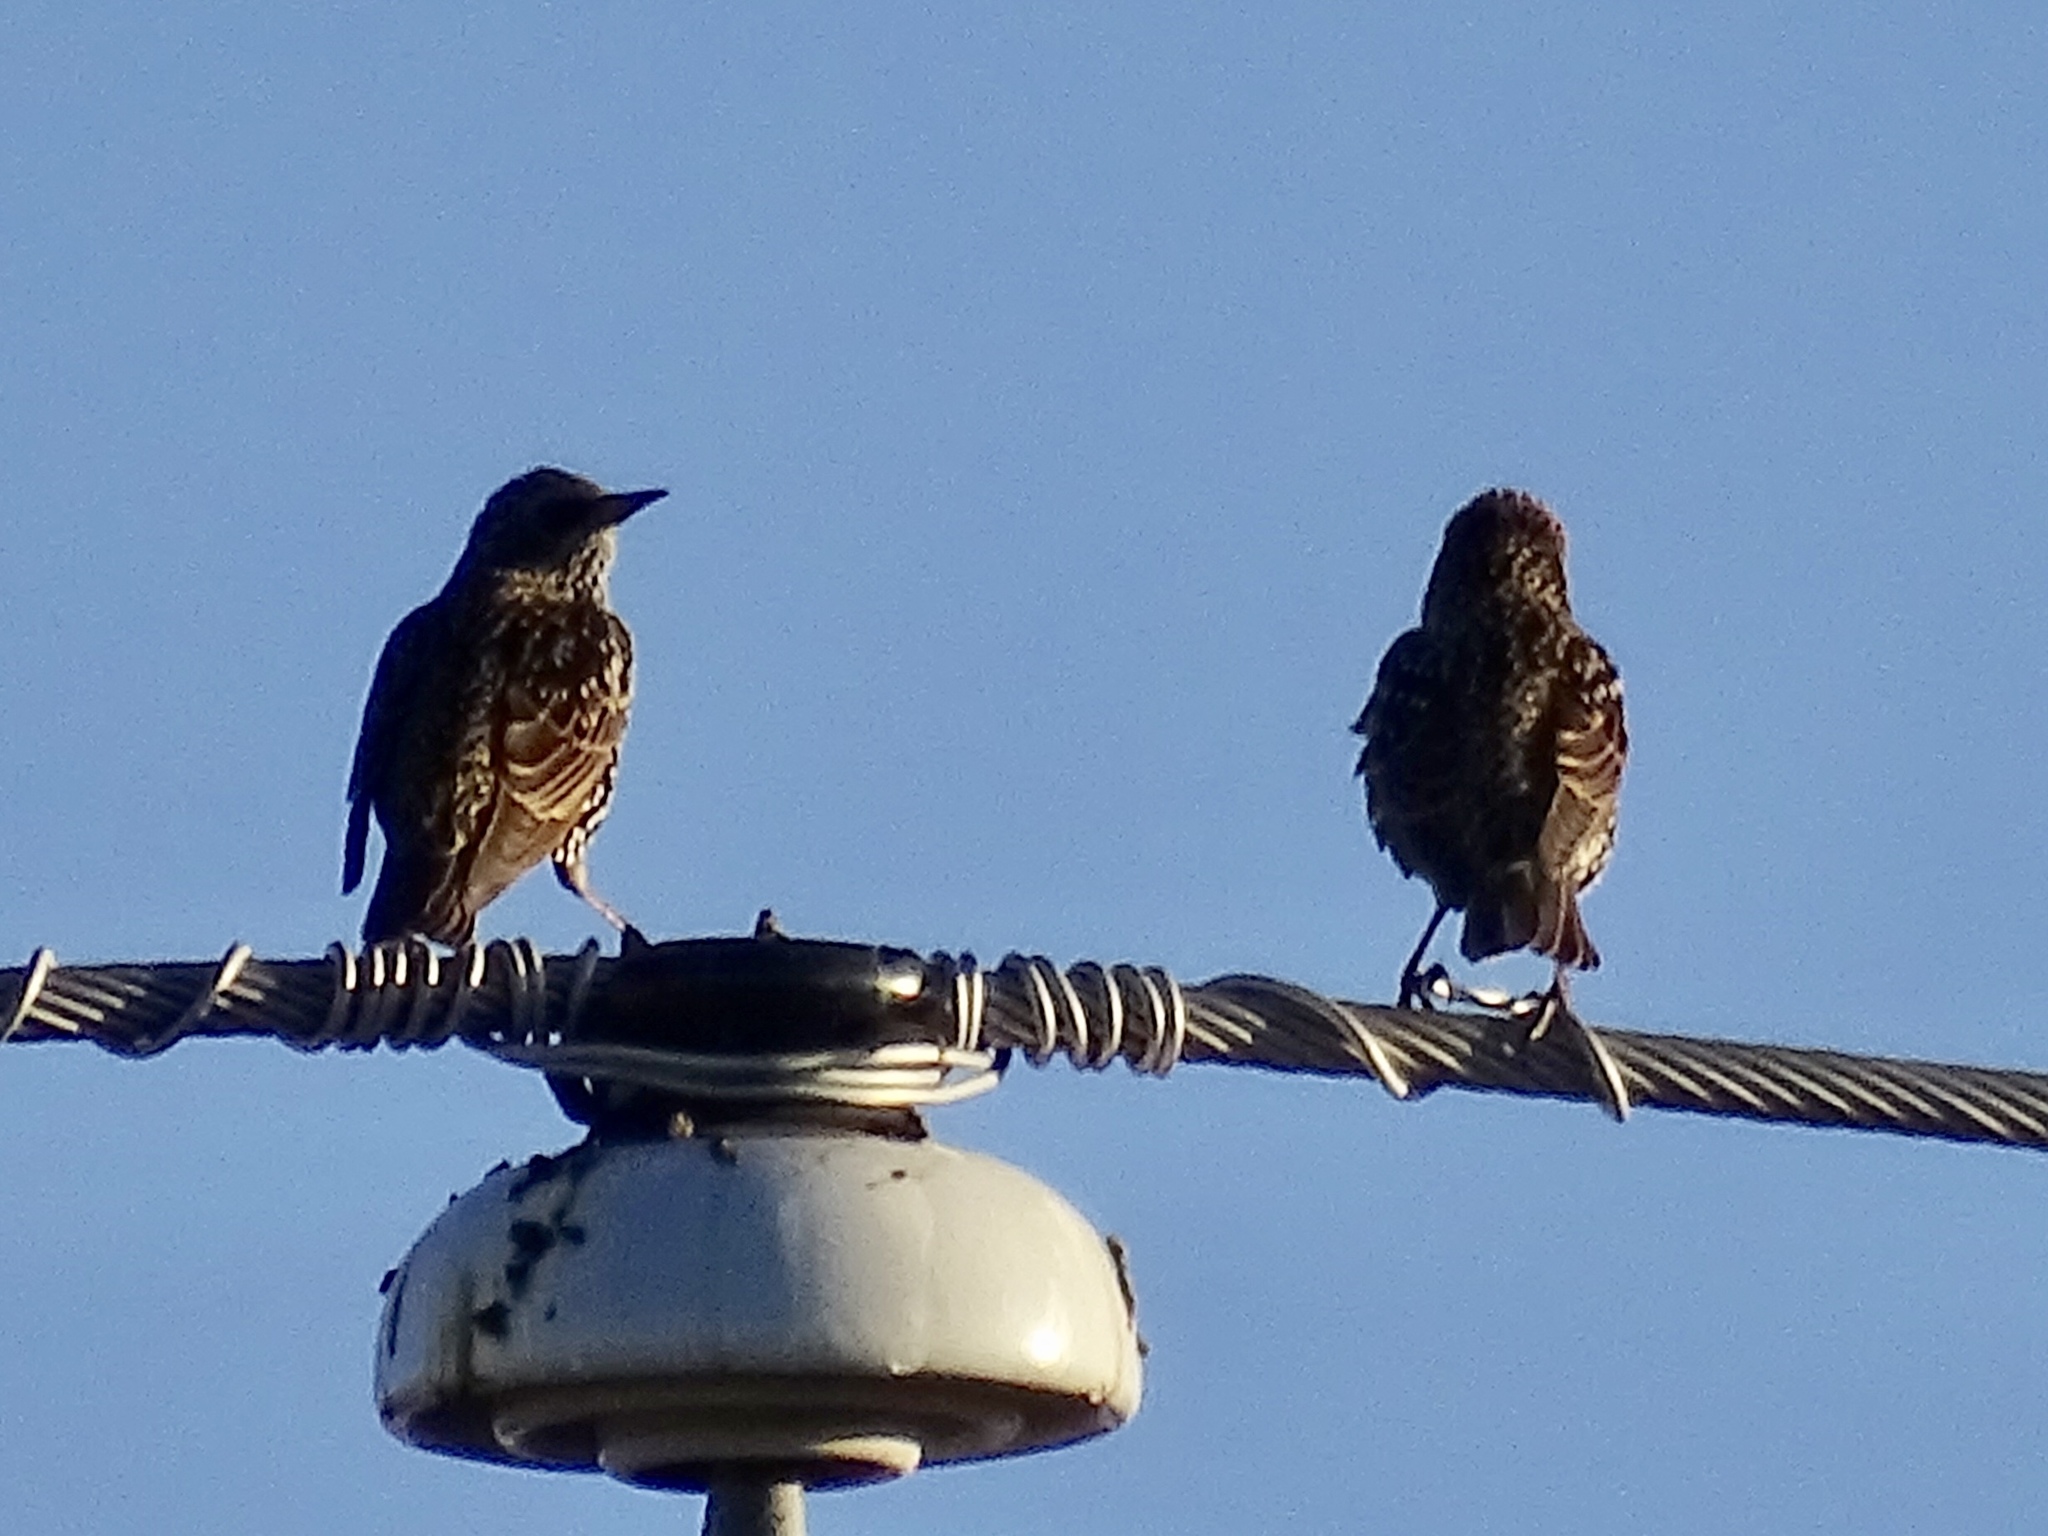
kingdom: Animalia
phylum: Chordata
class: Aves
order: Passeriformes
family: Sturnidae
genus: Sturnus
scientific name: Sturnus vulgaris
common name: Common starling
